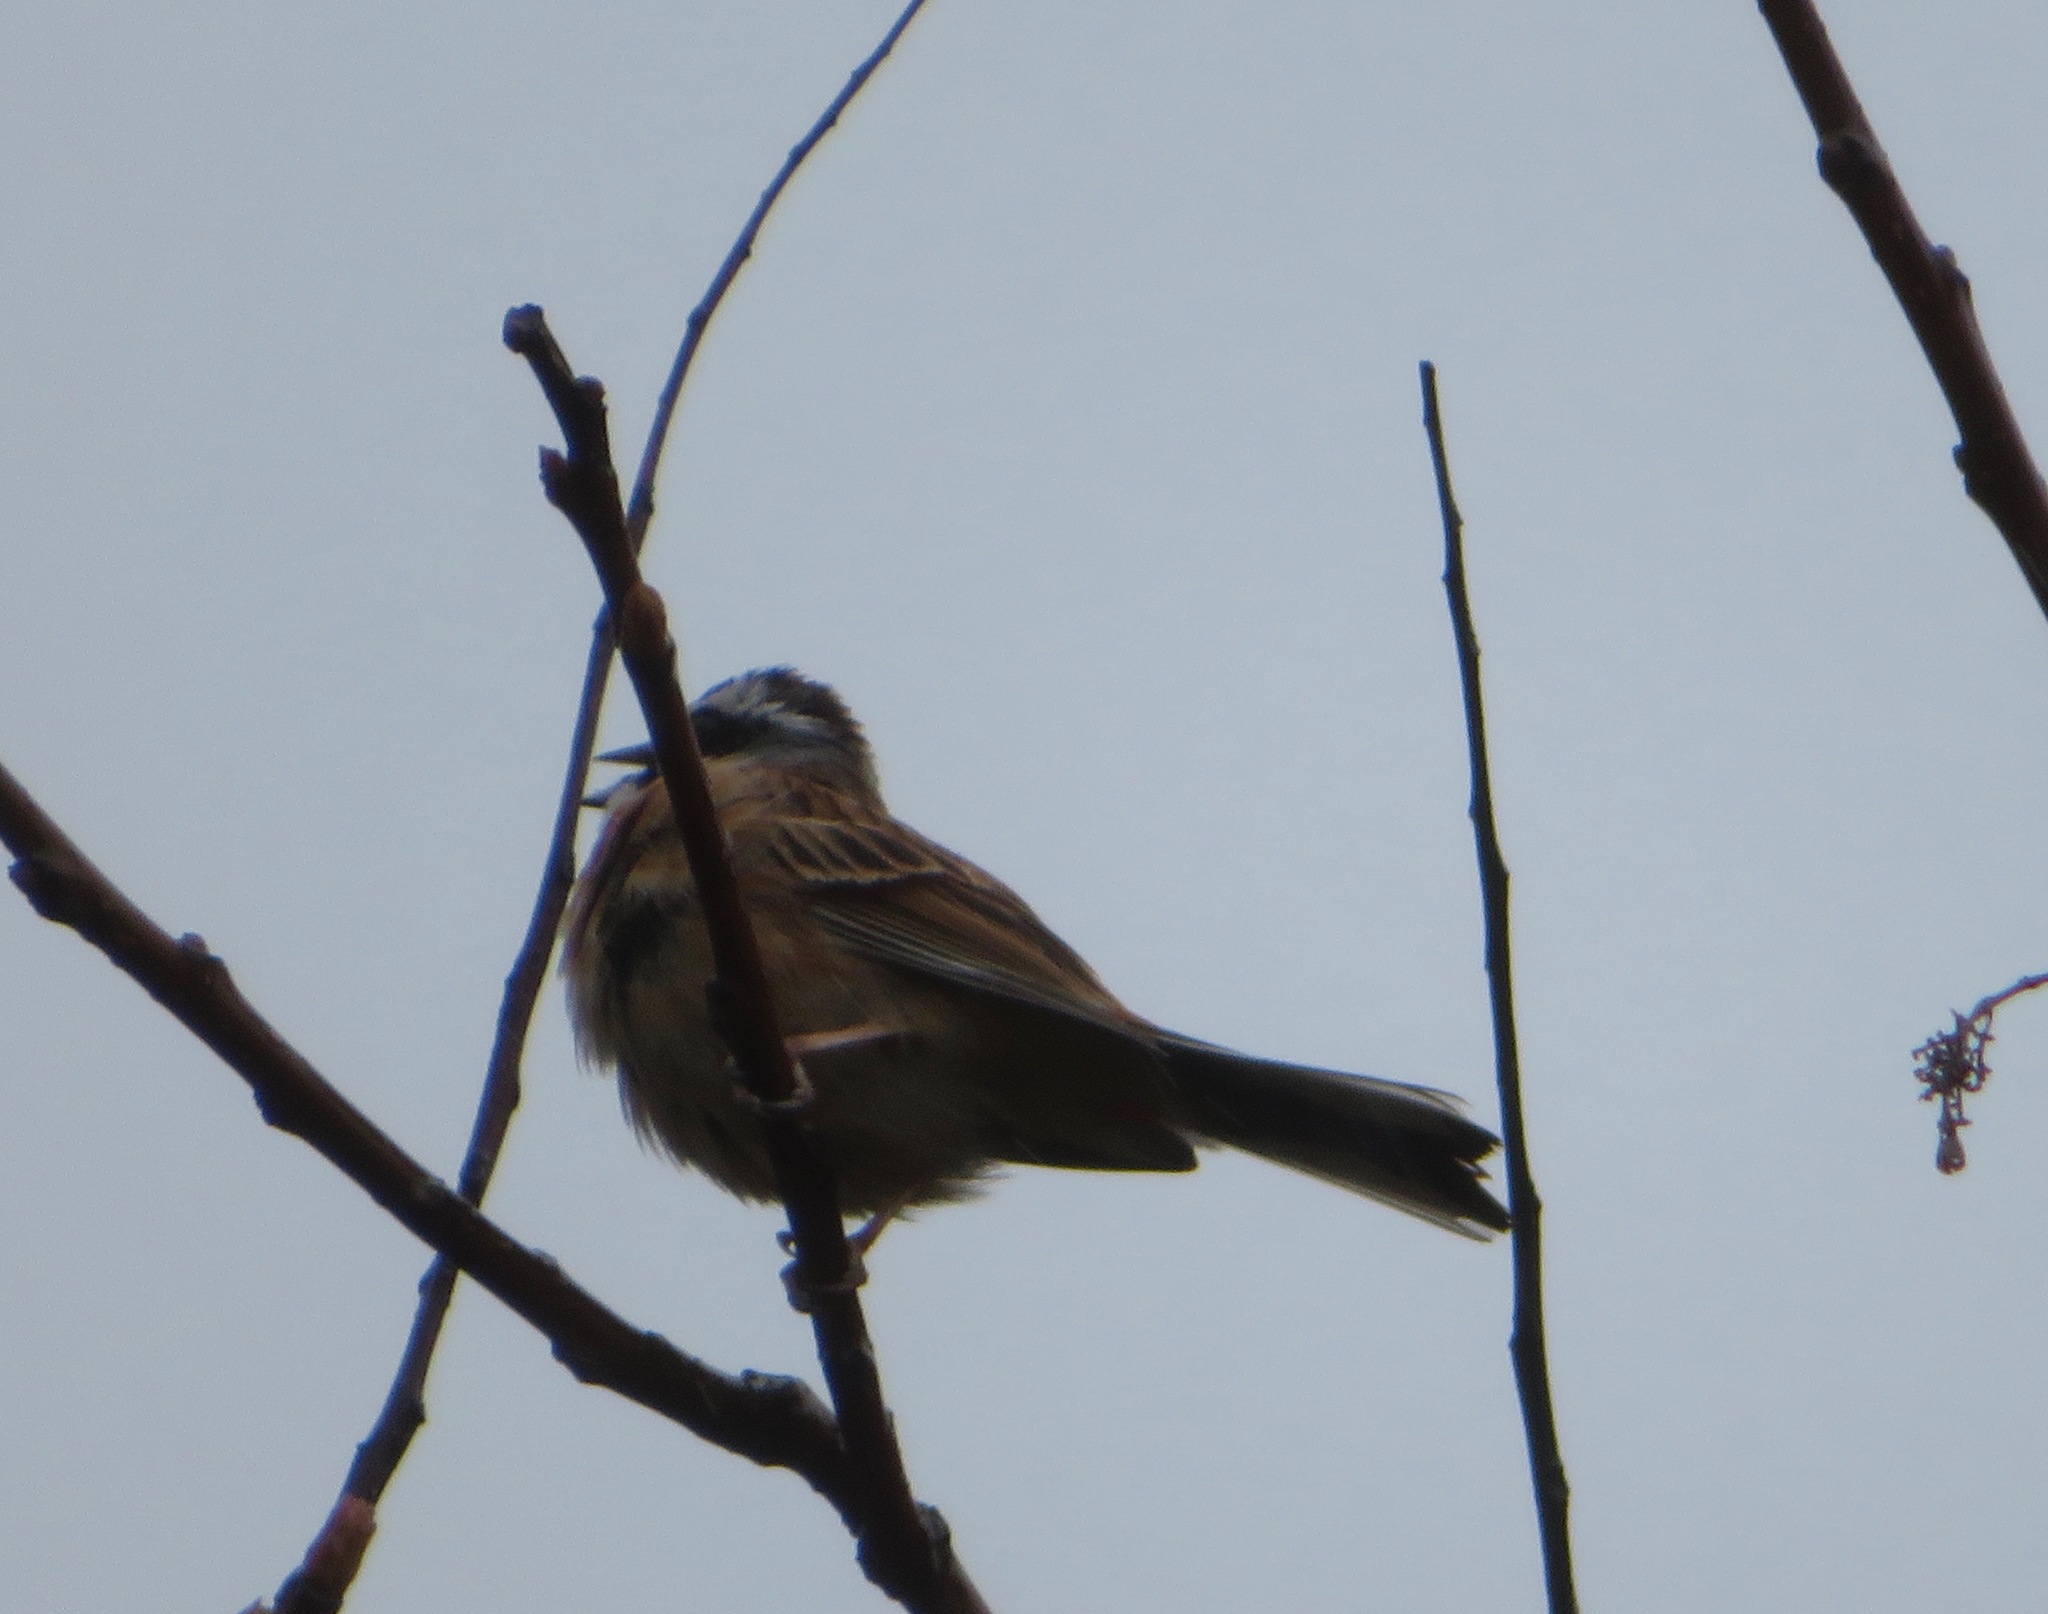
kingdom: Animalia
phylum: Chordata
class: Aves
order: Passeriformes
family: Emberizidae
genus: Emberiza
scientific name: Emberiza cioides
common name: Meadow bunting
